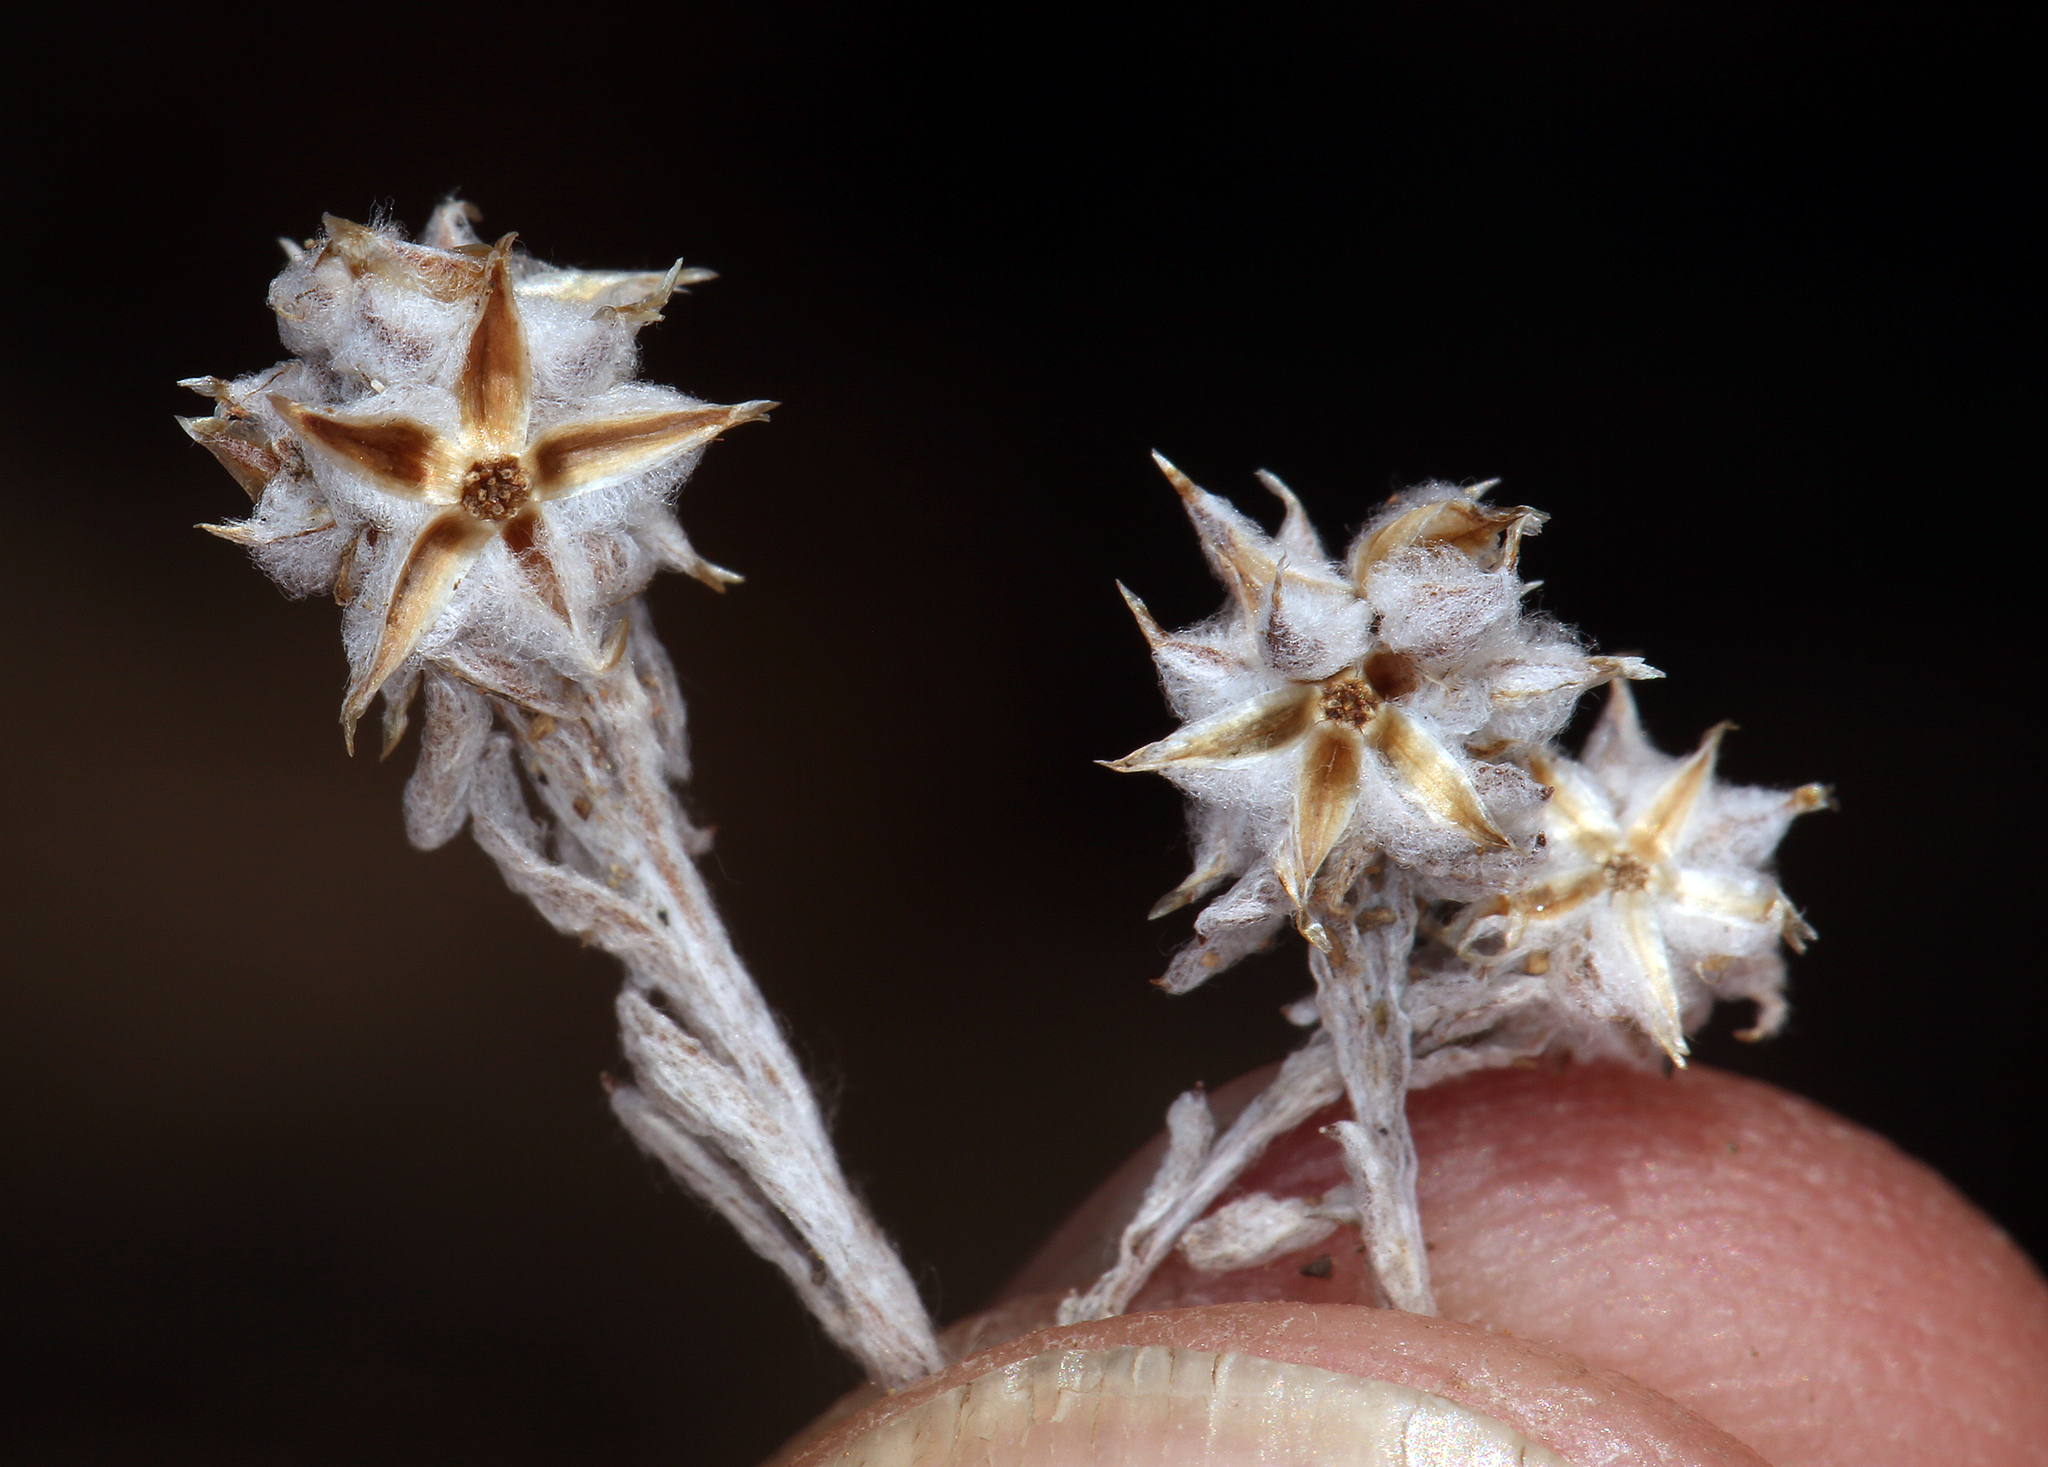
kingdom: Plantae
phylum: Tracheophyta
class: Magnoliopsida
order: Asterales
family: Asteraceae
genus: Logfia
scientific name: Logfia californica
